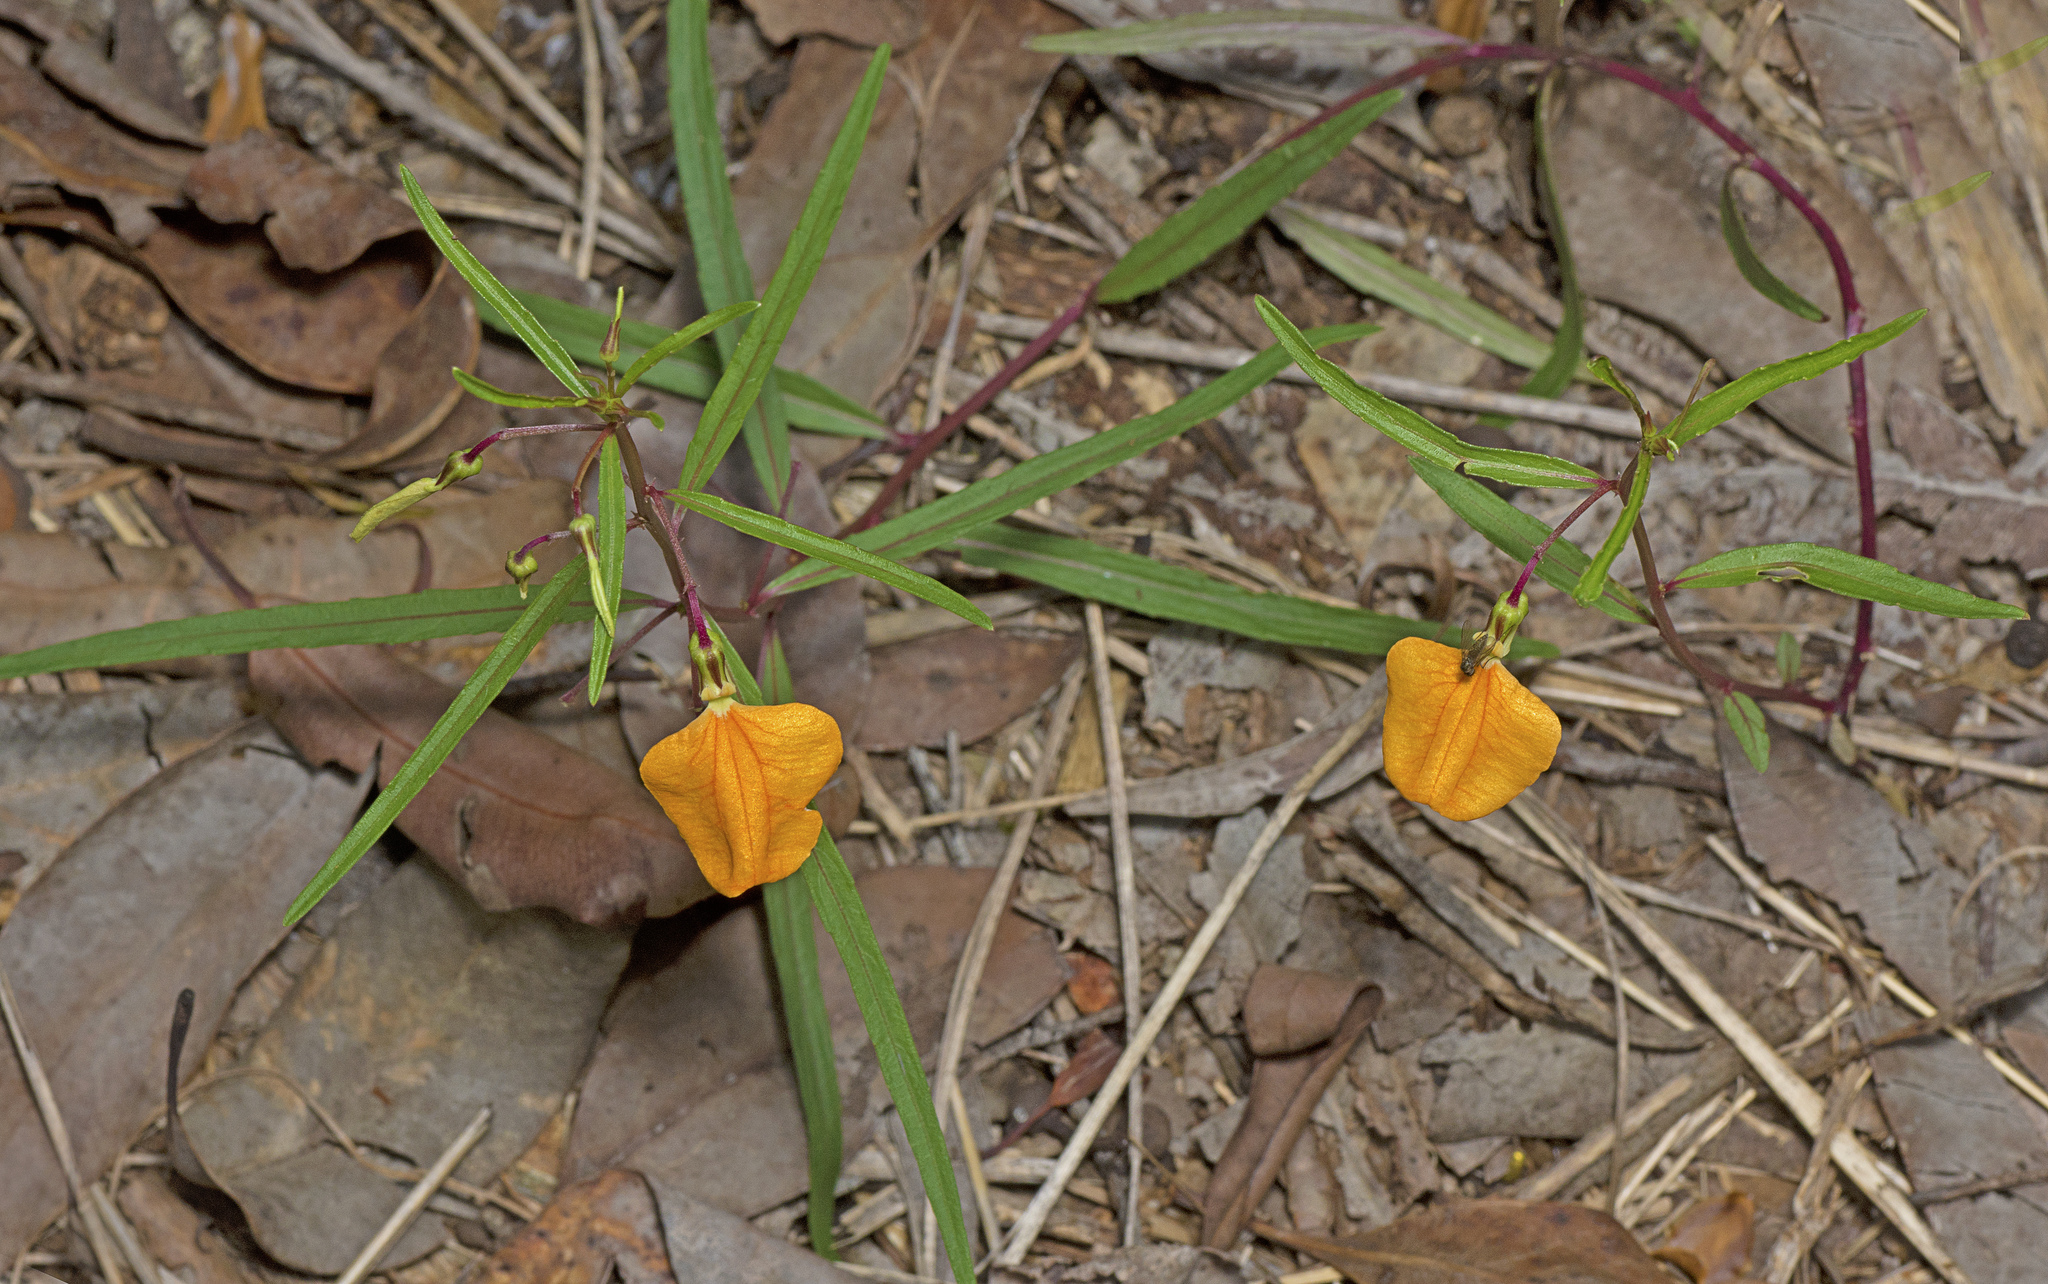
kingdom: Plantae
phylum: Tracheophyta
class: Magnoliopsida
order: Malpighiales
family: Violaceae
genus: Pigea
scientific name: Pigea stellarioides
